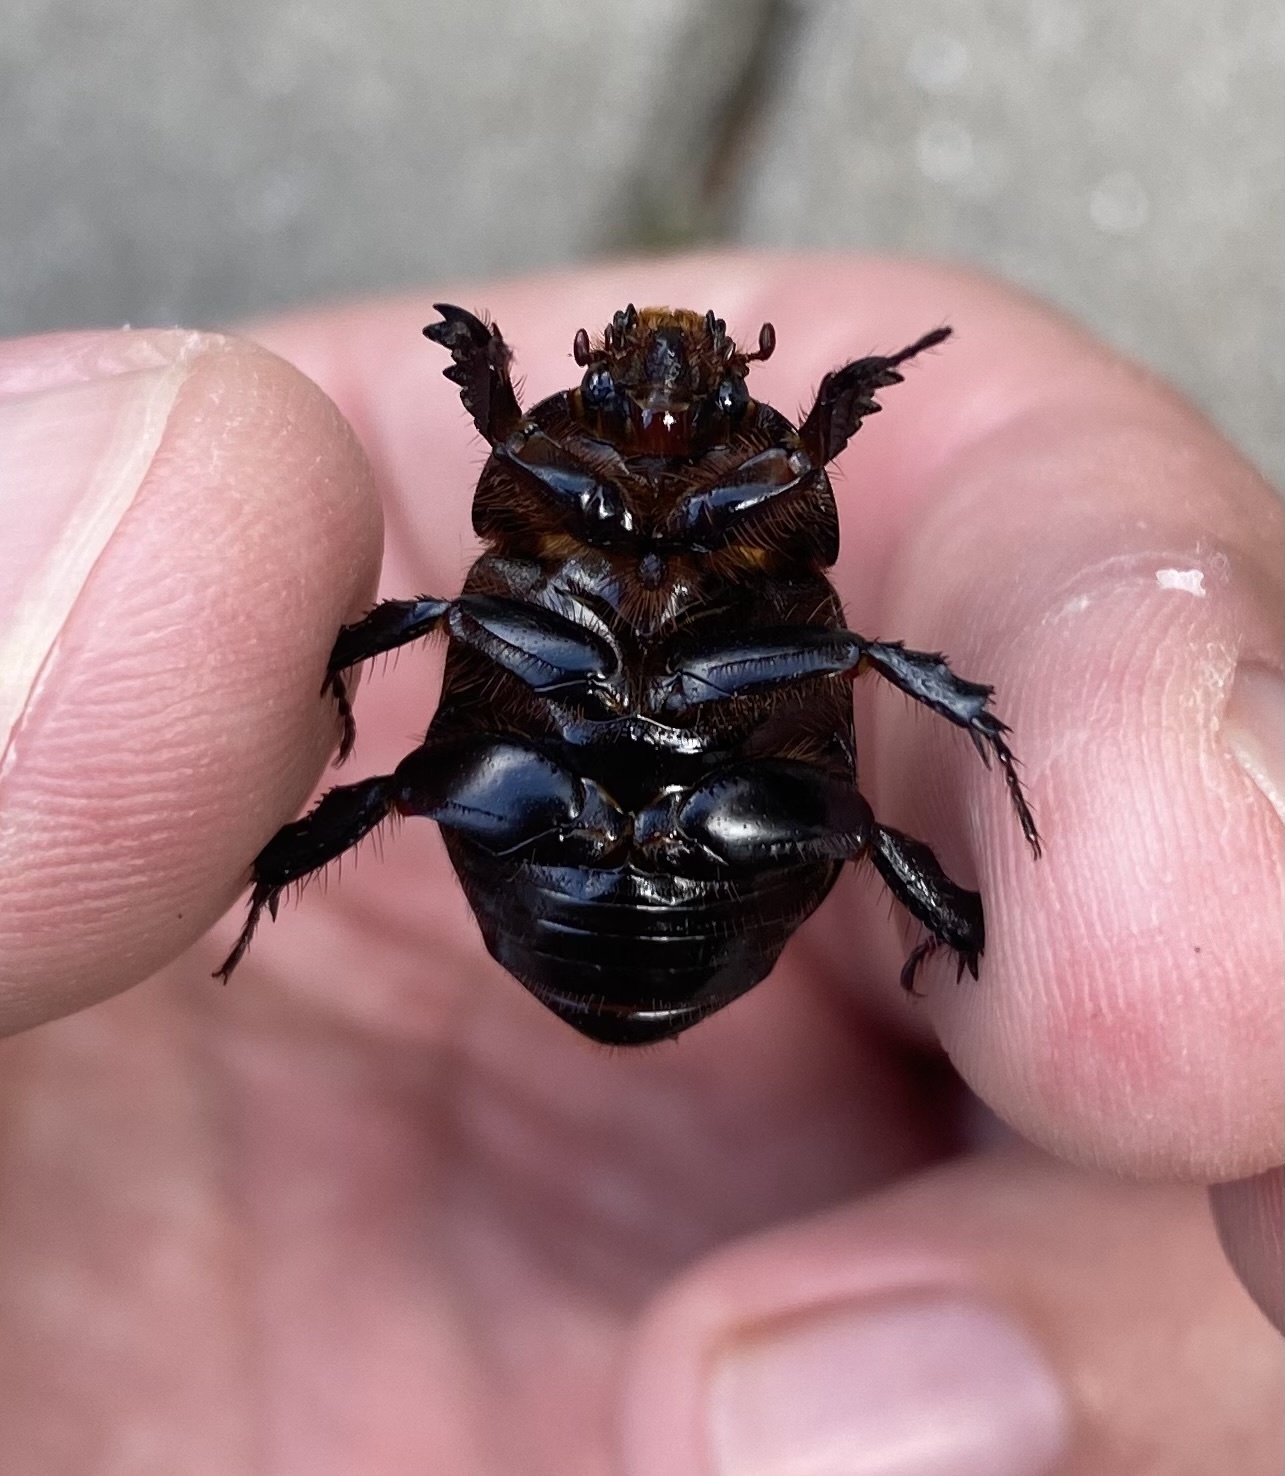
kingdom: Animalia
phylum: Arthropoda
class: Insecta
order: Coleoptera
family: Scarabaeidae
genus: Pentodon
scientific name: Pentodon idiota
